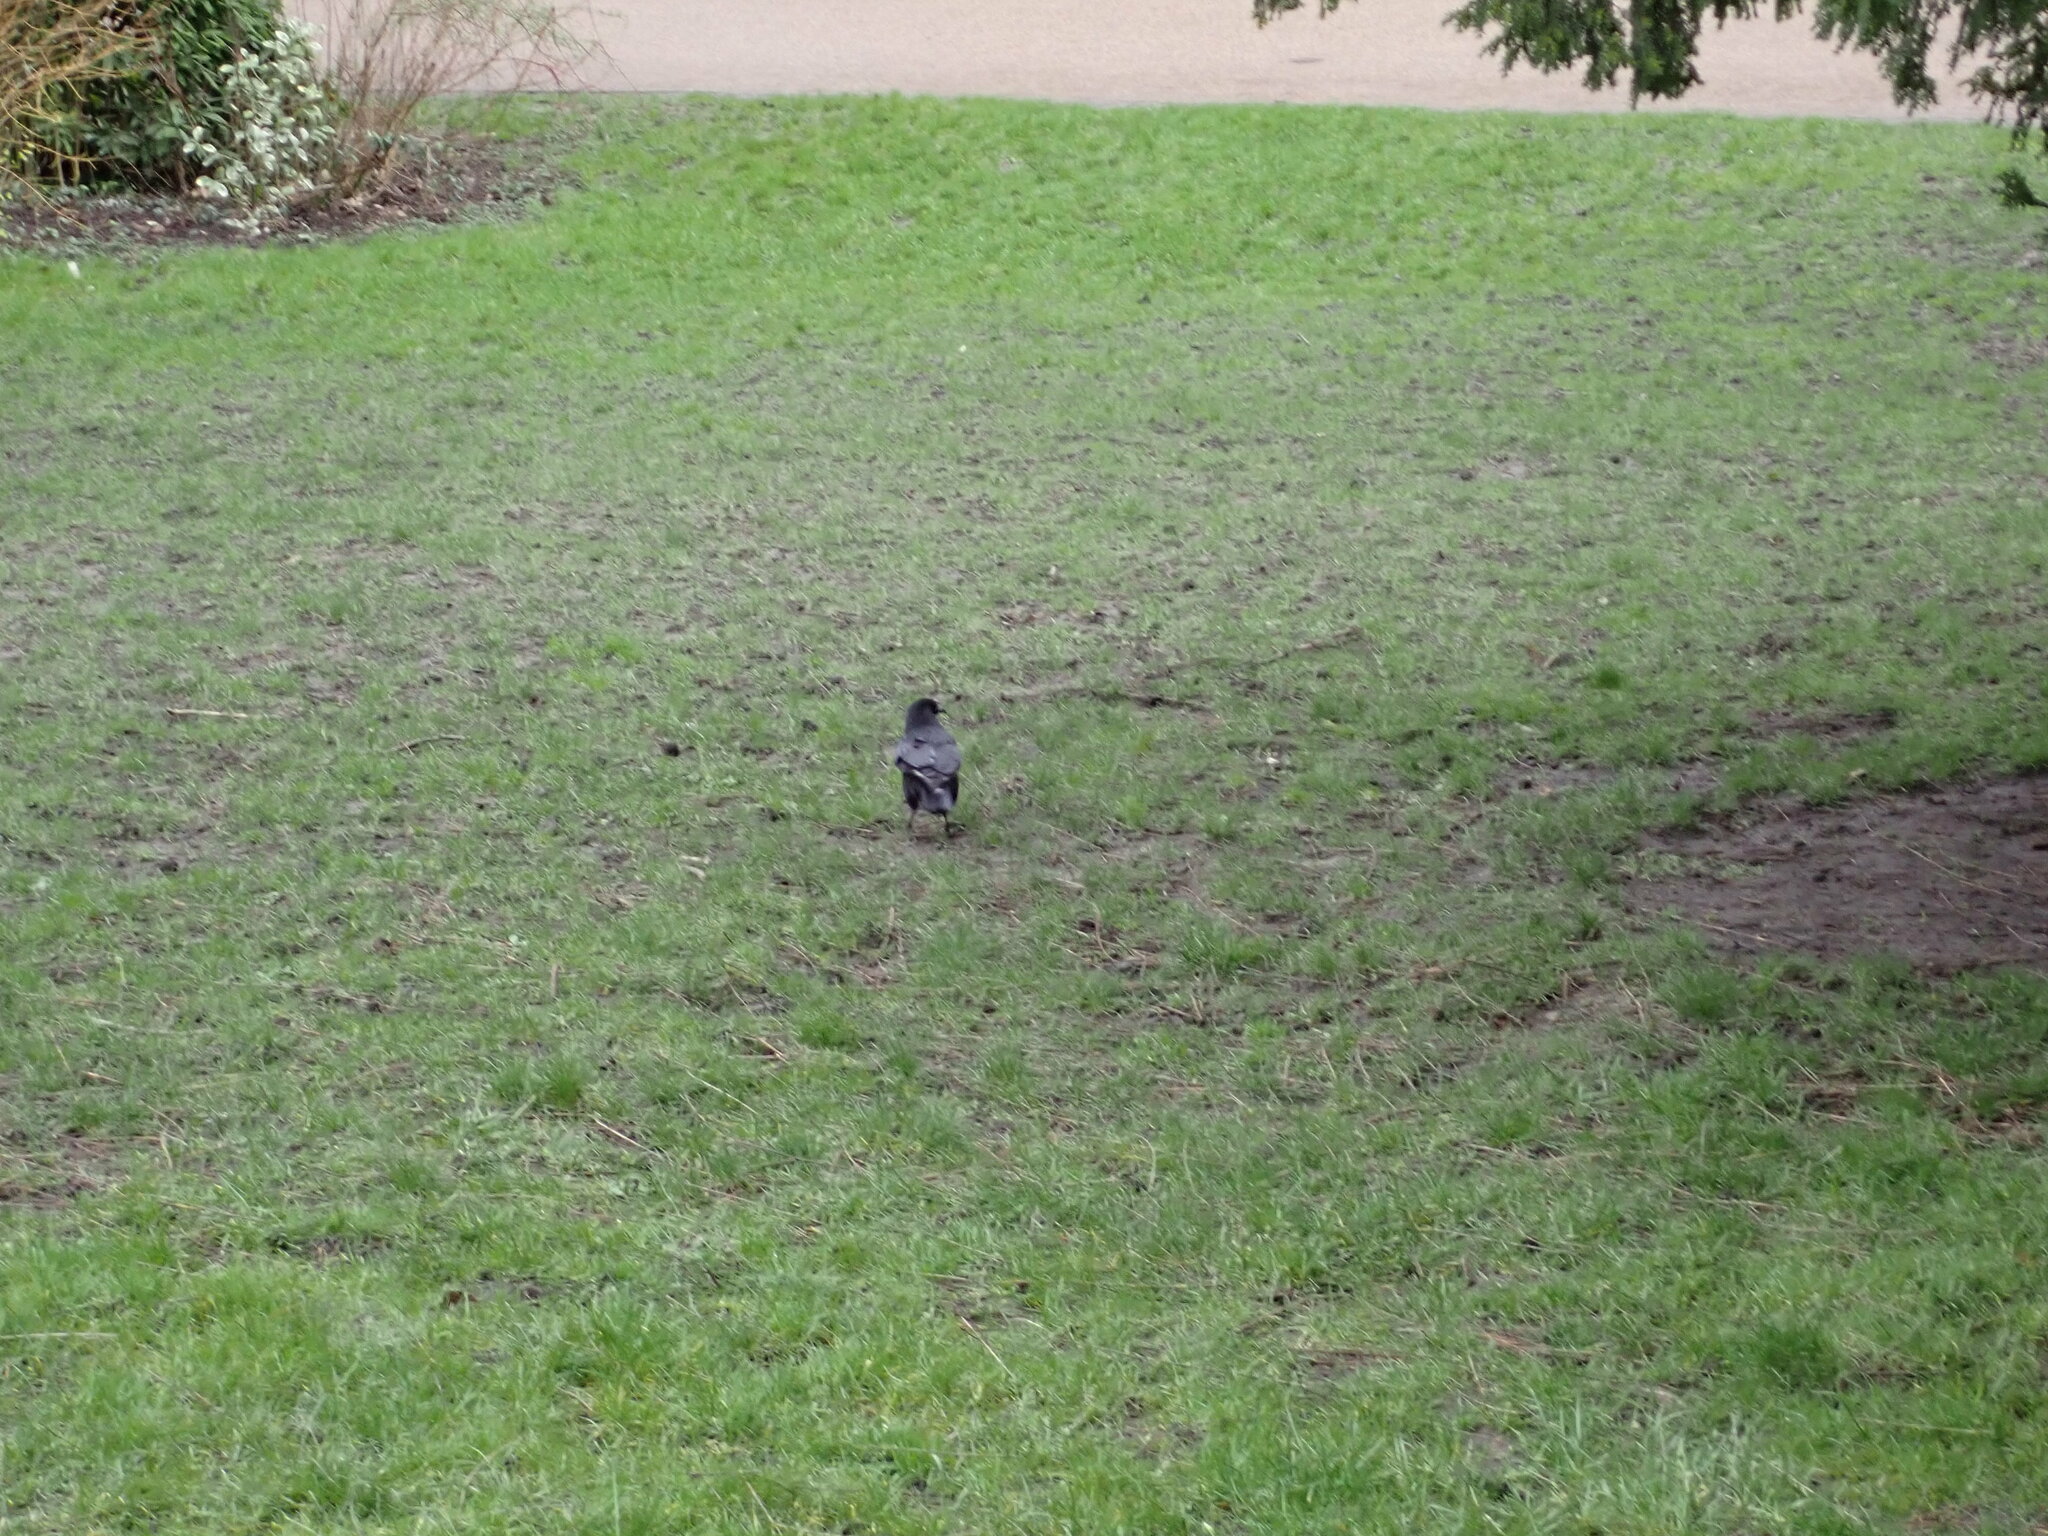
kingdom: Animalia
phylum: Chordata
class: Aves
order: Passeriformes
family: Corvidae
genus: Corvus
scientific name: Corvus corone
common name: Carrion crow
